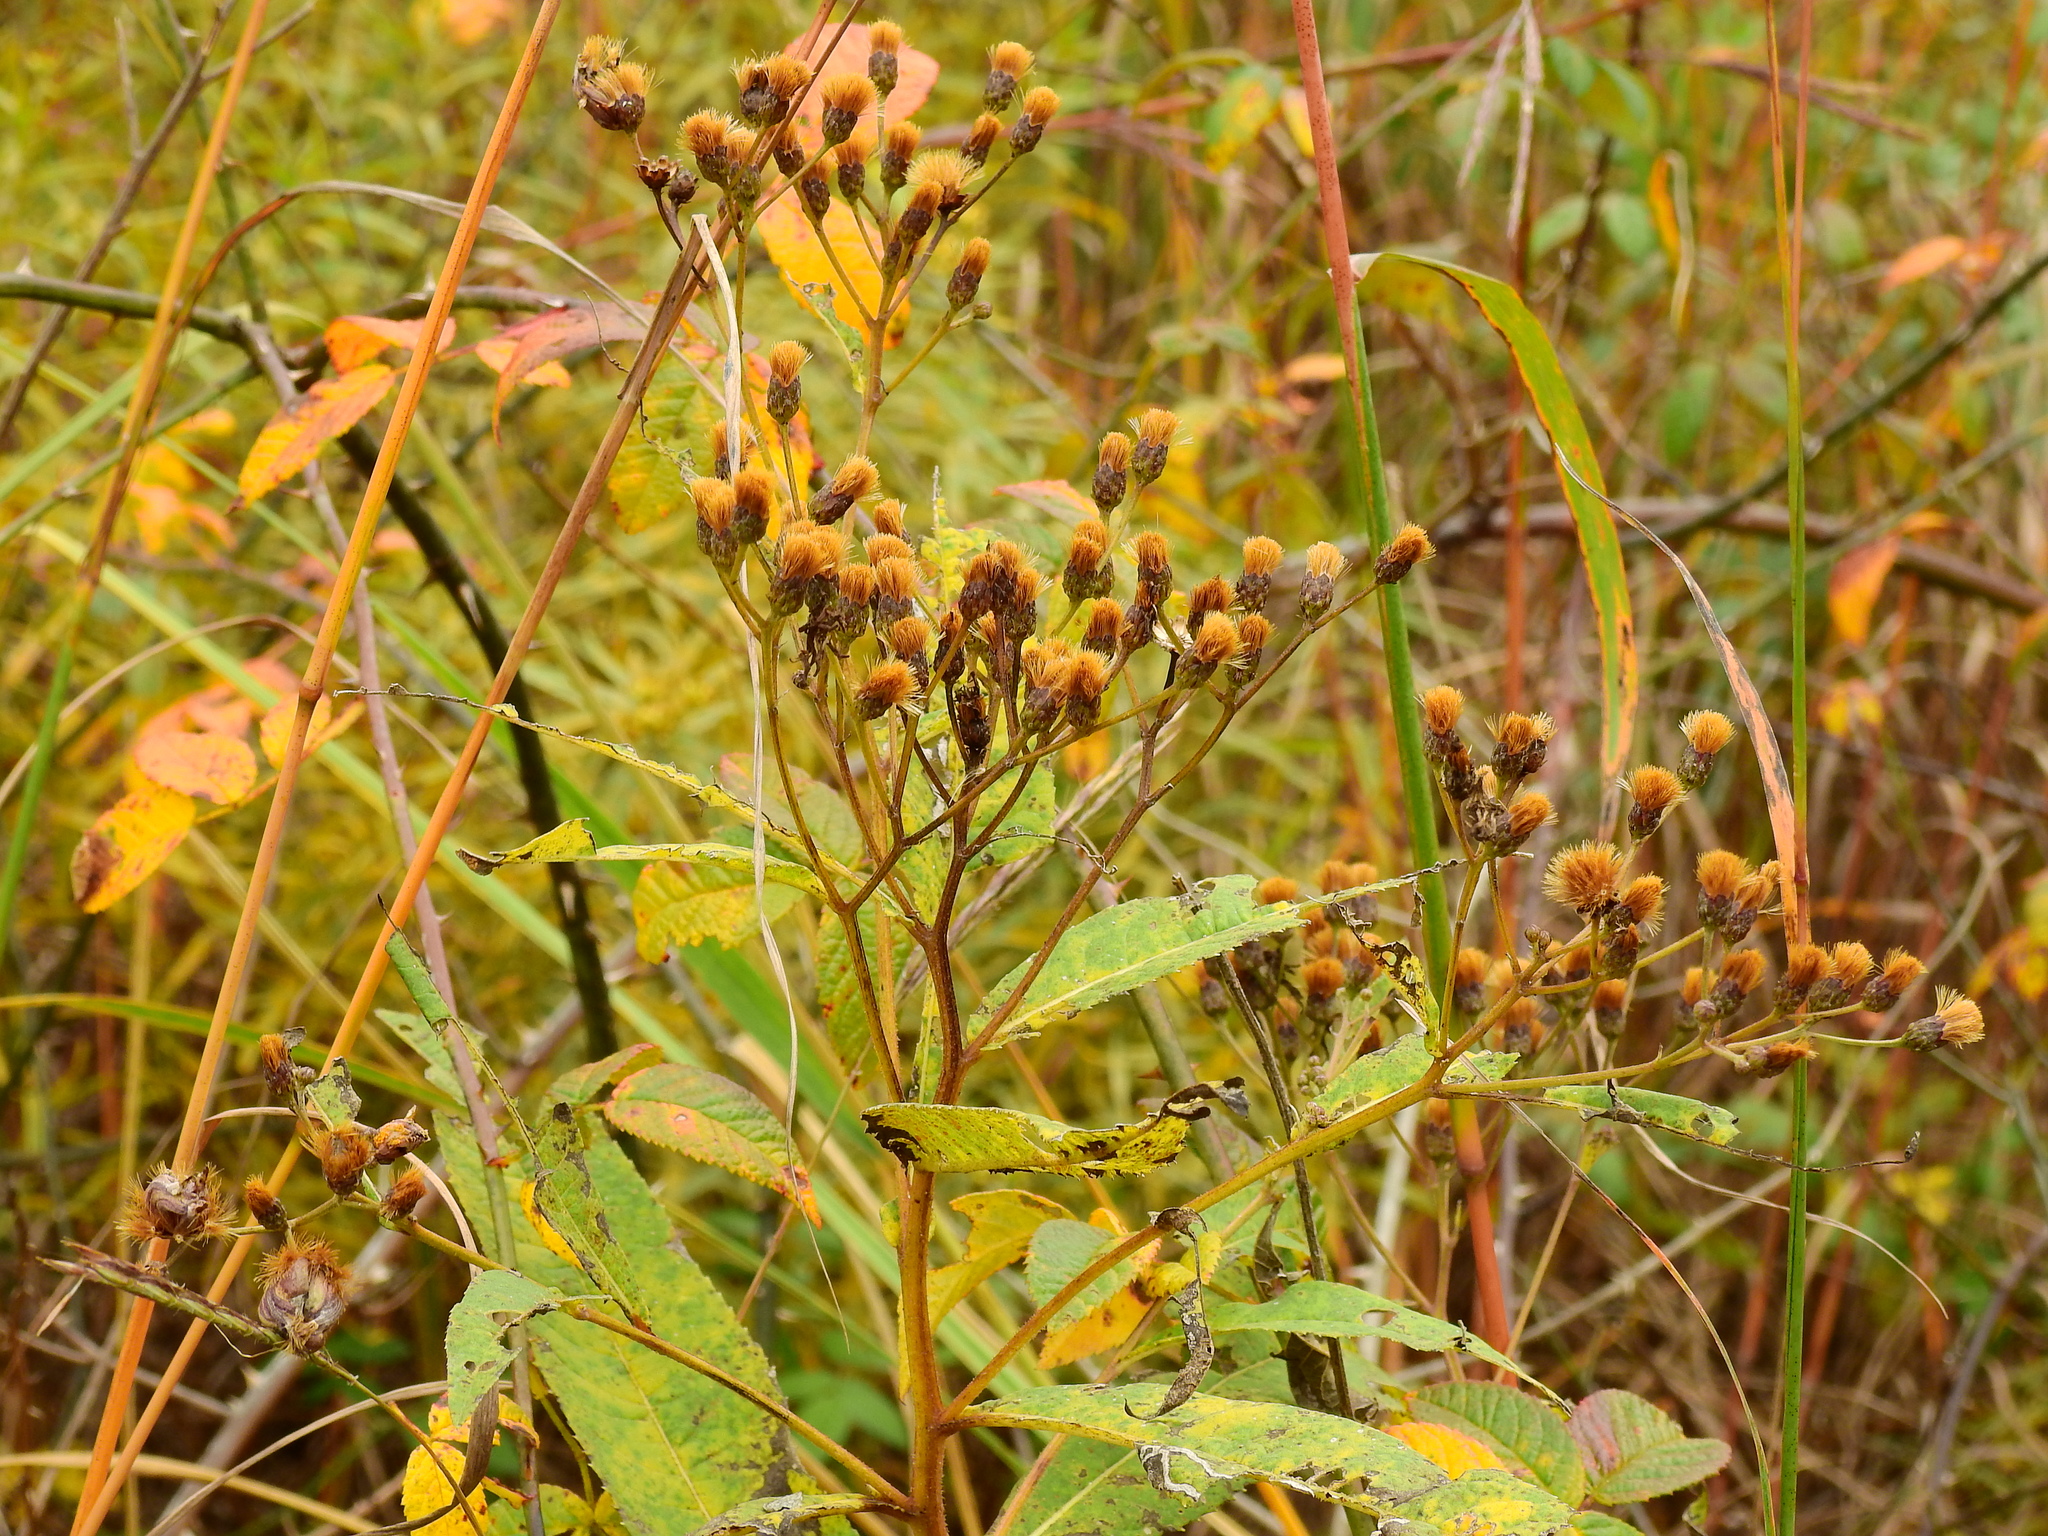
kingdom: Plantae
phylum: Tracheophyta
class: Magnoliopsida
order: Asterales
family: Asteraceae
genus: Vernonia
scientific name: Vernonia gigantea
